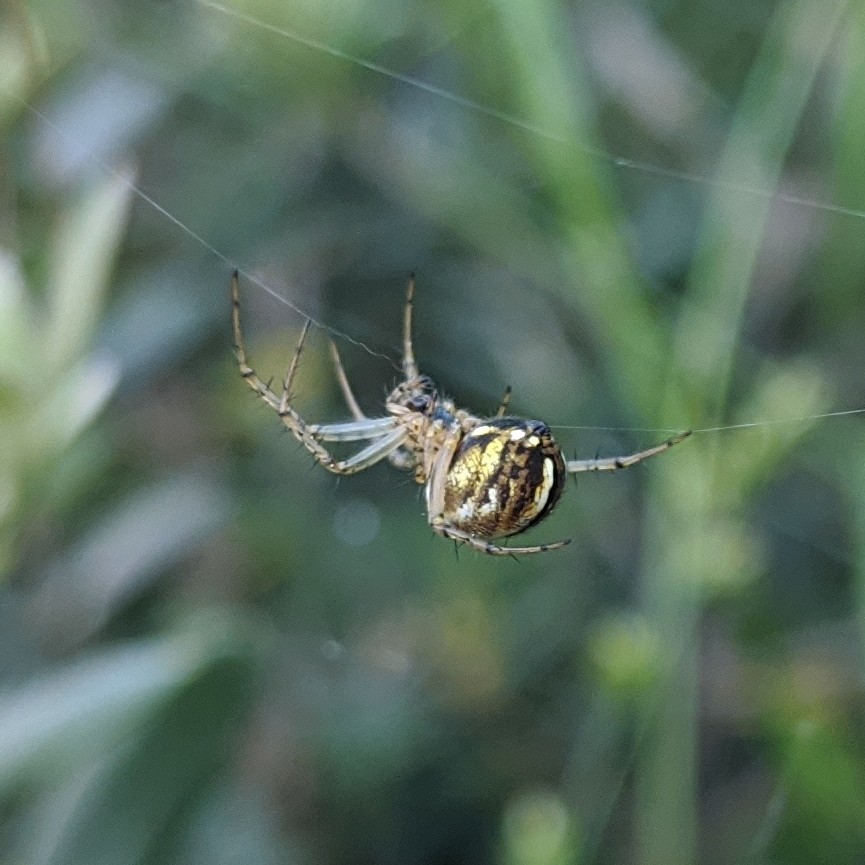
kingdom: Animalia
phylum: Arthropoda
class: Arachnida
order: Araneae
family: Araneidae
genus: Mangora
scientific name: Mangora acalypha
